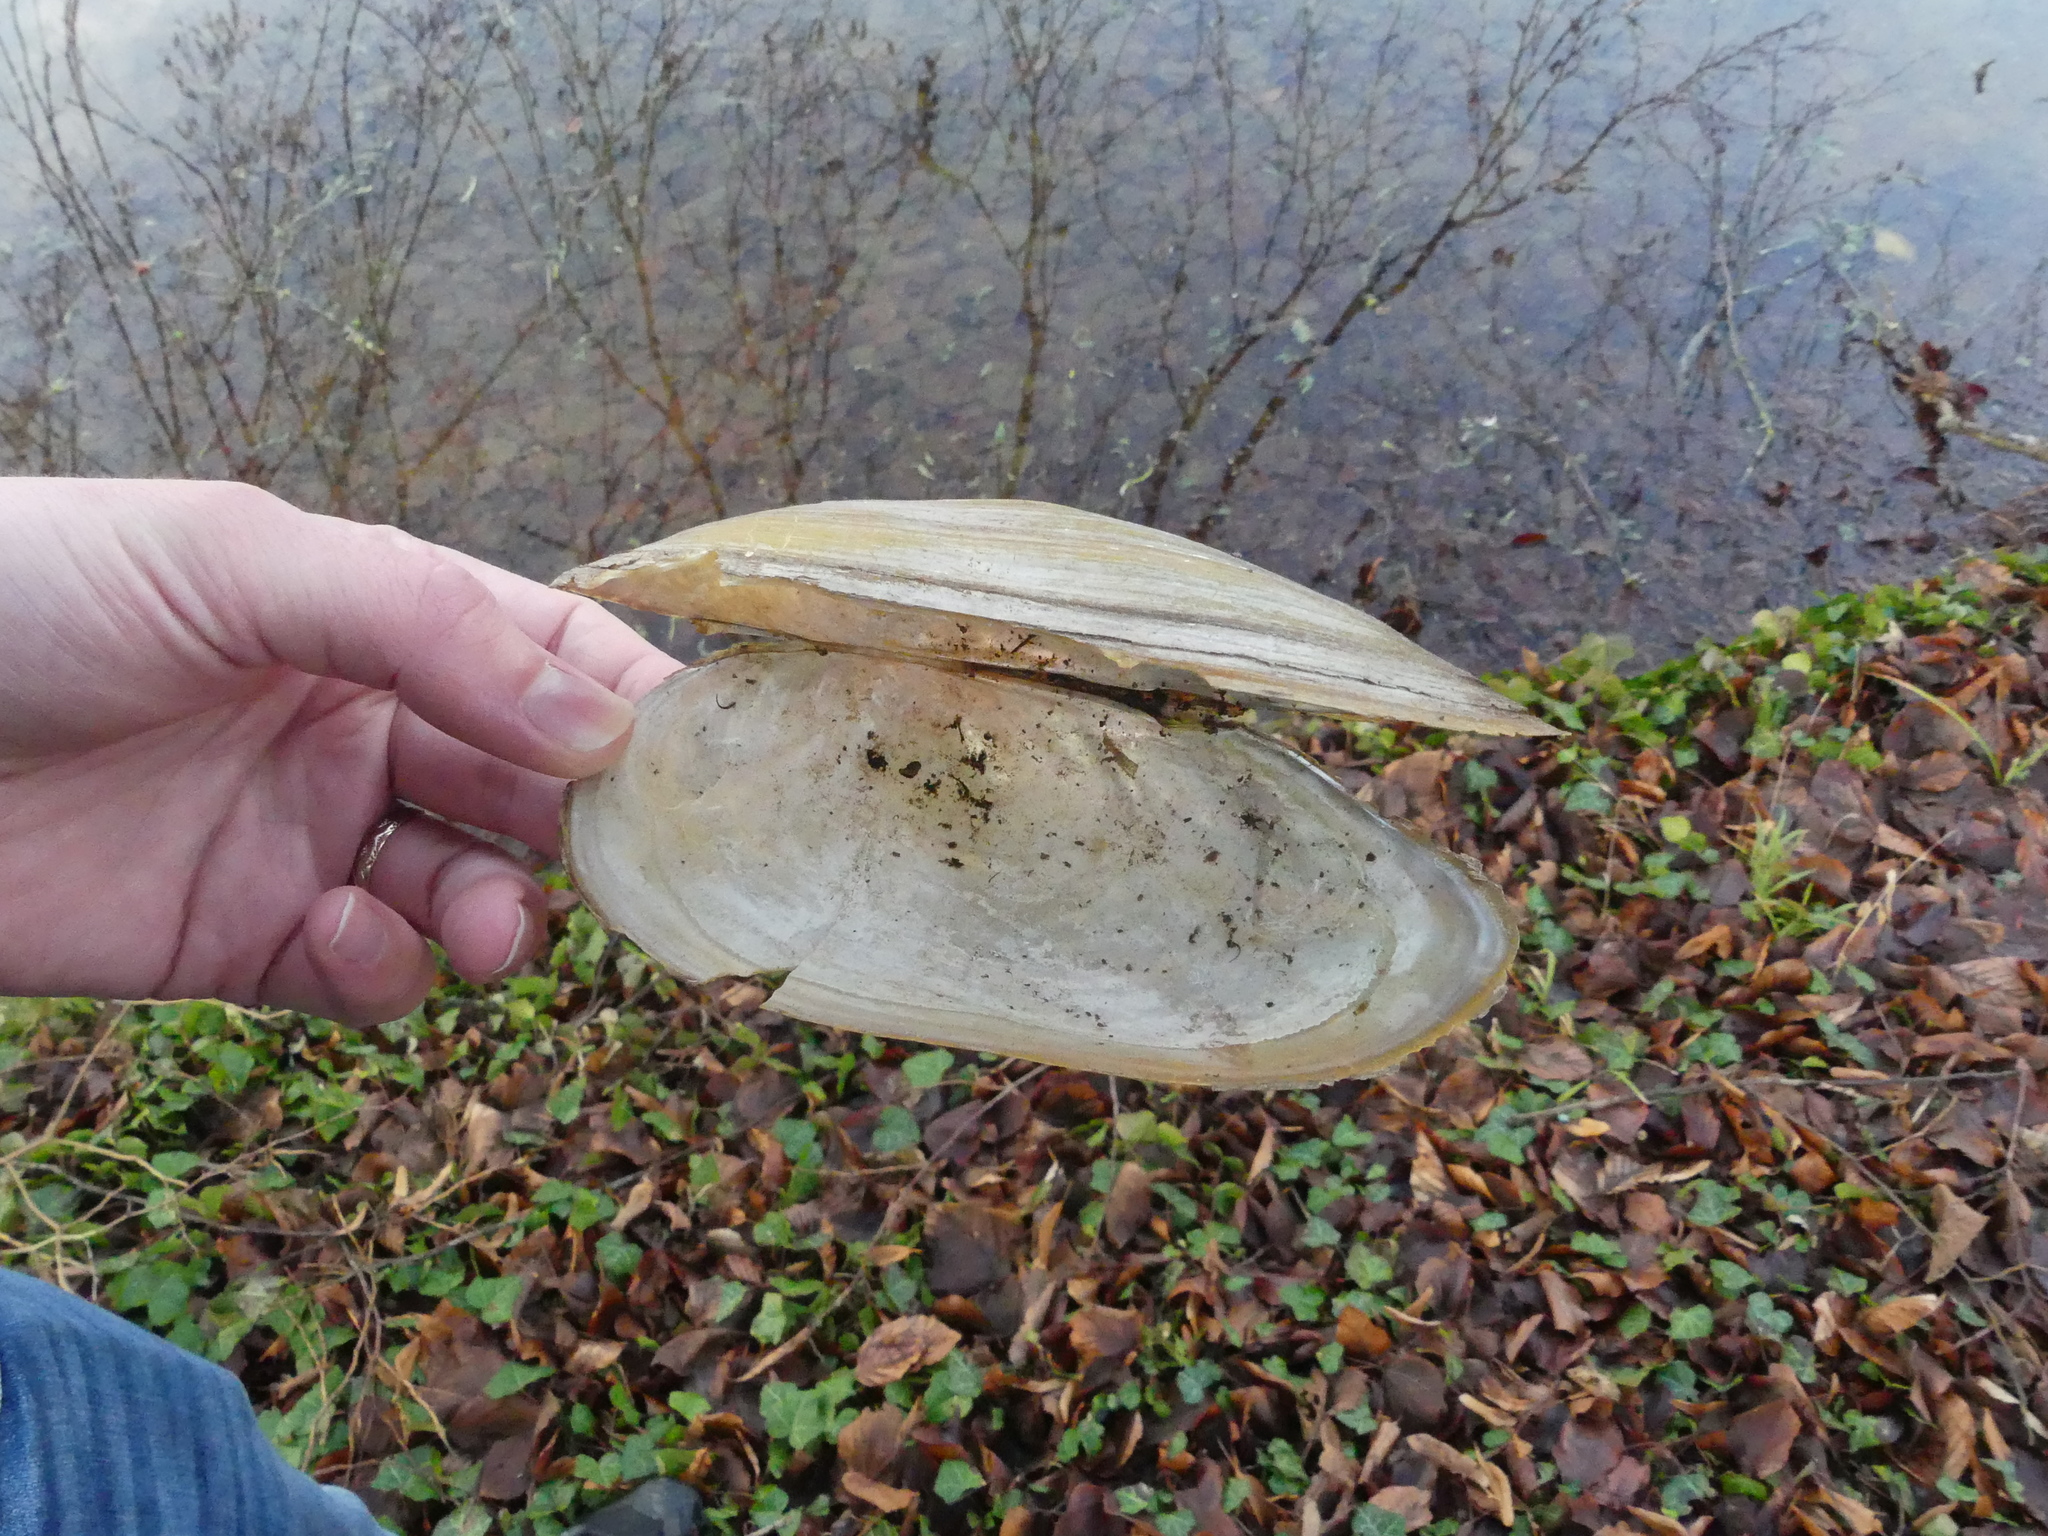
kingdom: Animalia
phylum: Mollusca
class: Bivalvia
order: Unionida
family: Unionidae
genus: Anodonta
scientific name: Anodonta cygnea
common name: Swan mussel
